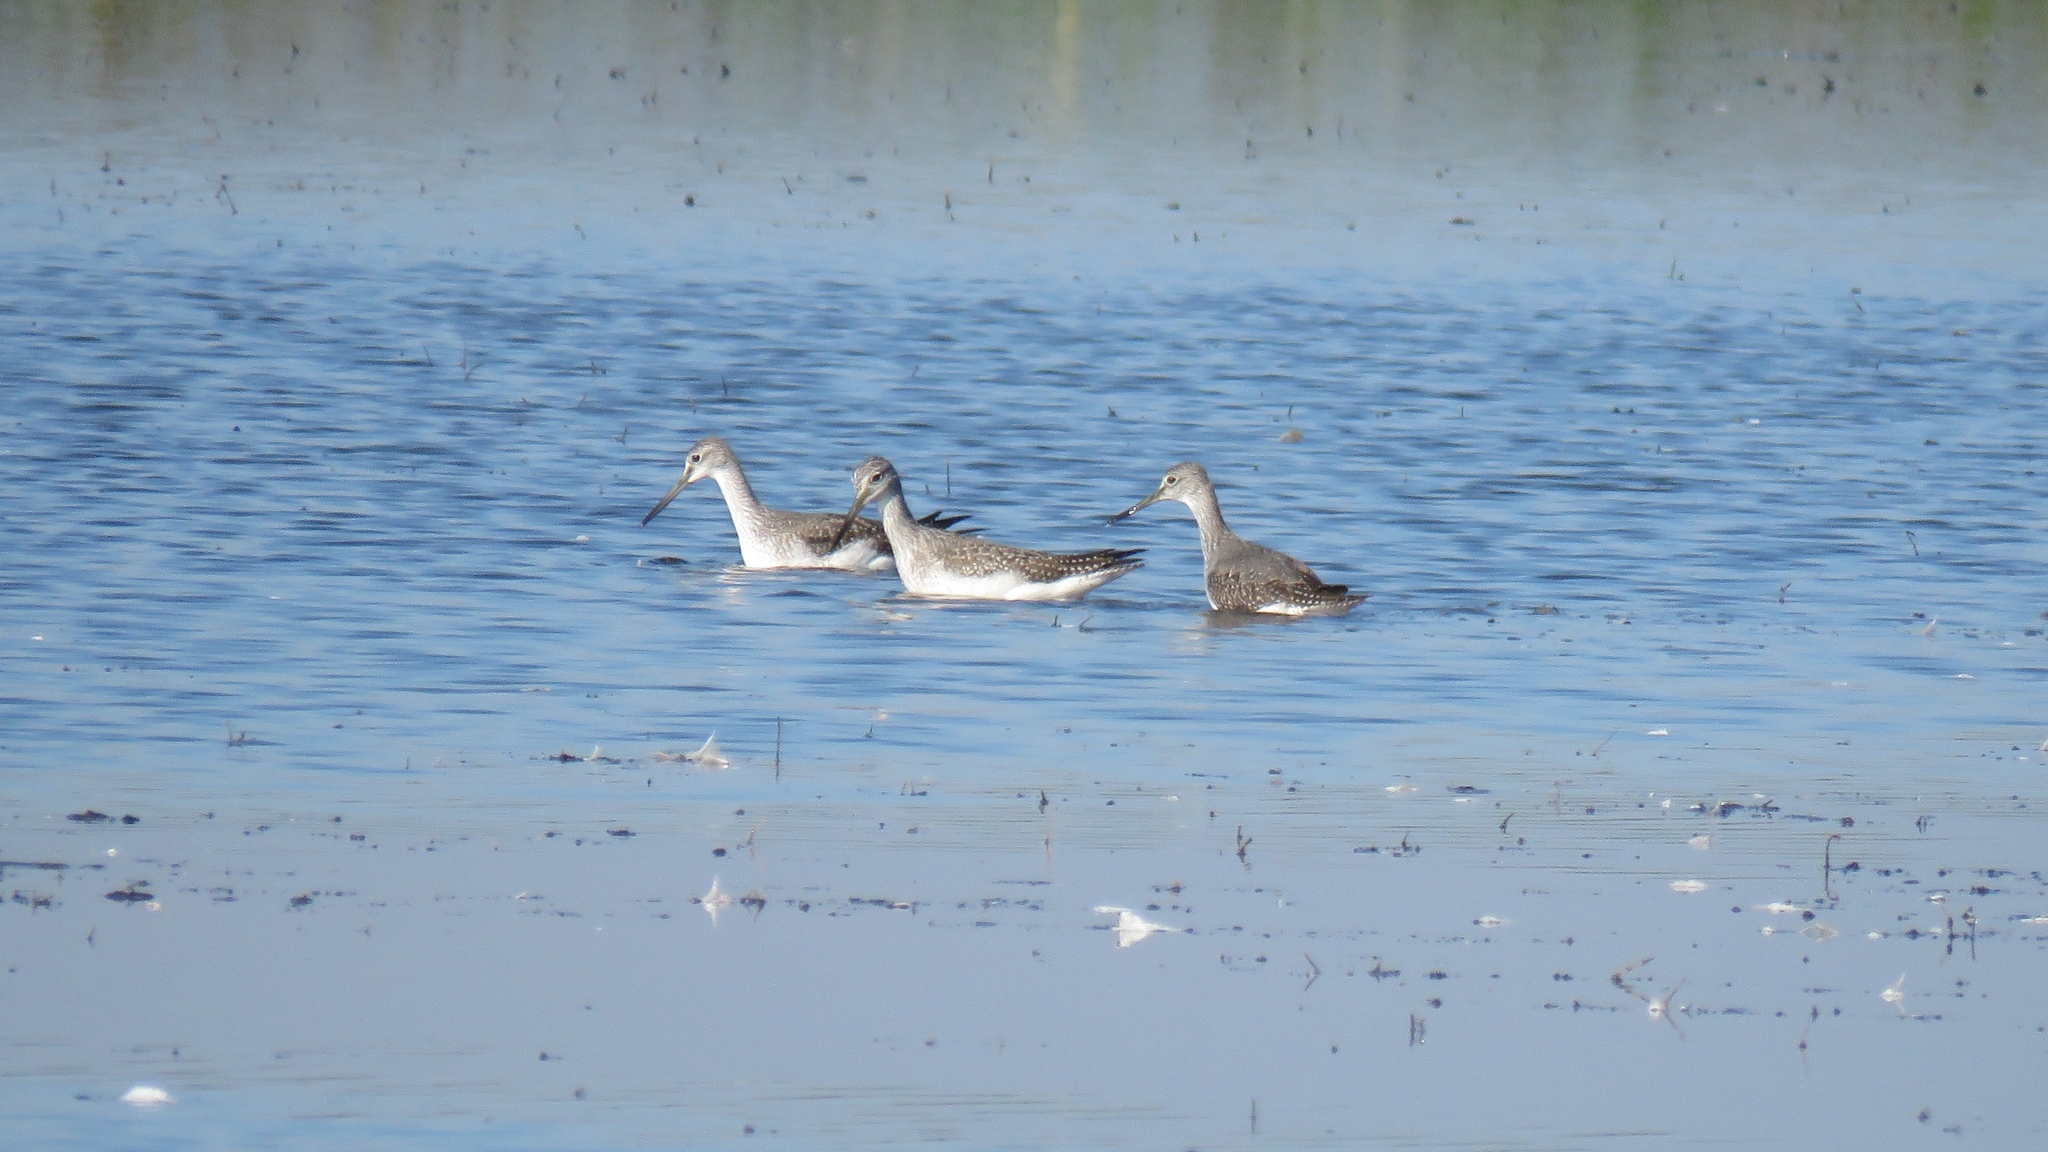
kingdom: Animalia
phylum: Chordata
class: Aves
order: Charadriiformes
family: Scolopacidae
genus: Tringa
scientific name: Tringa melanoleuca
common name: Greater yellowlegs
